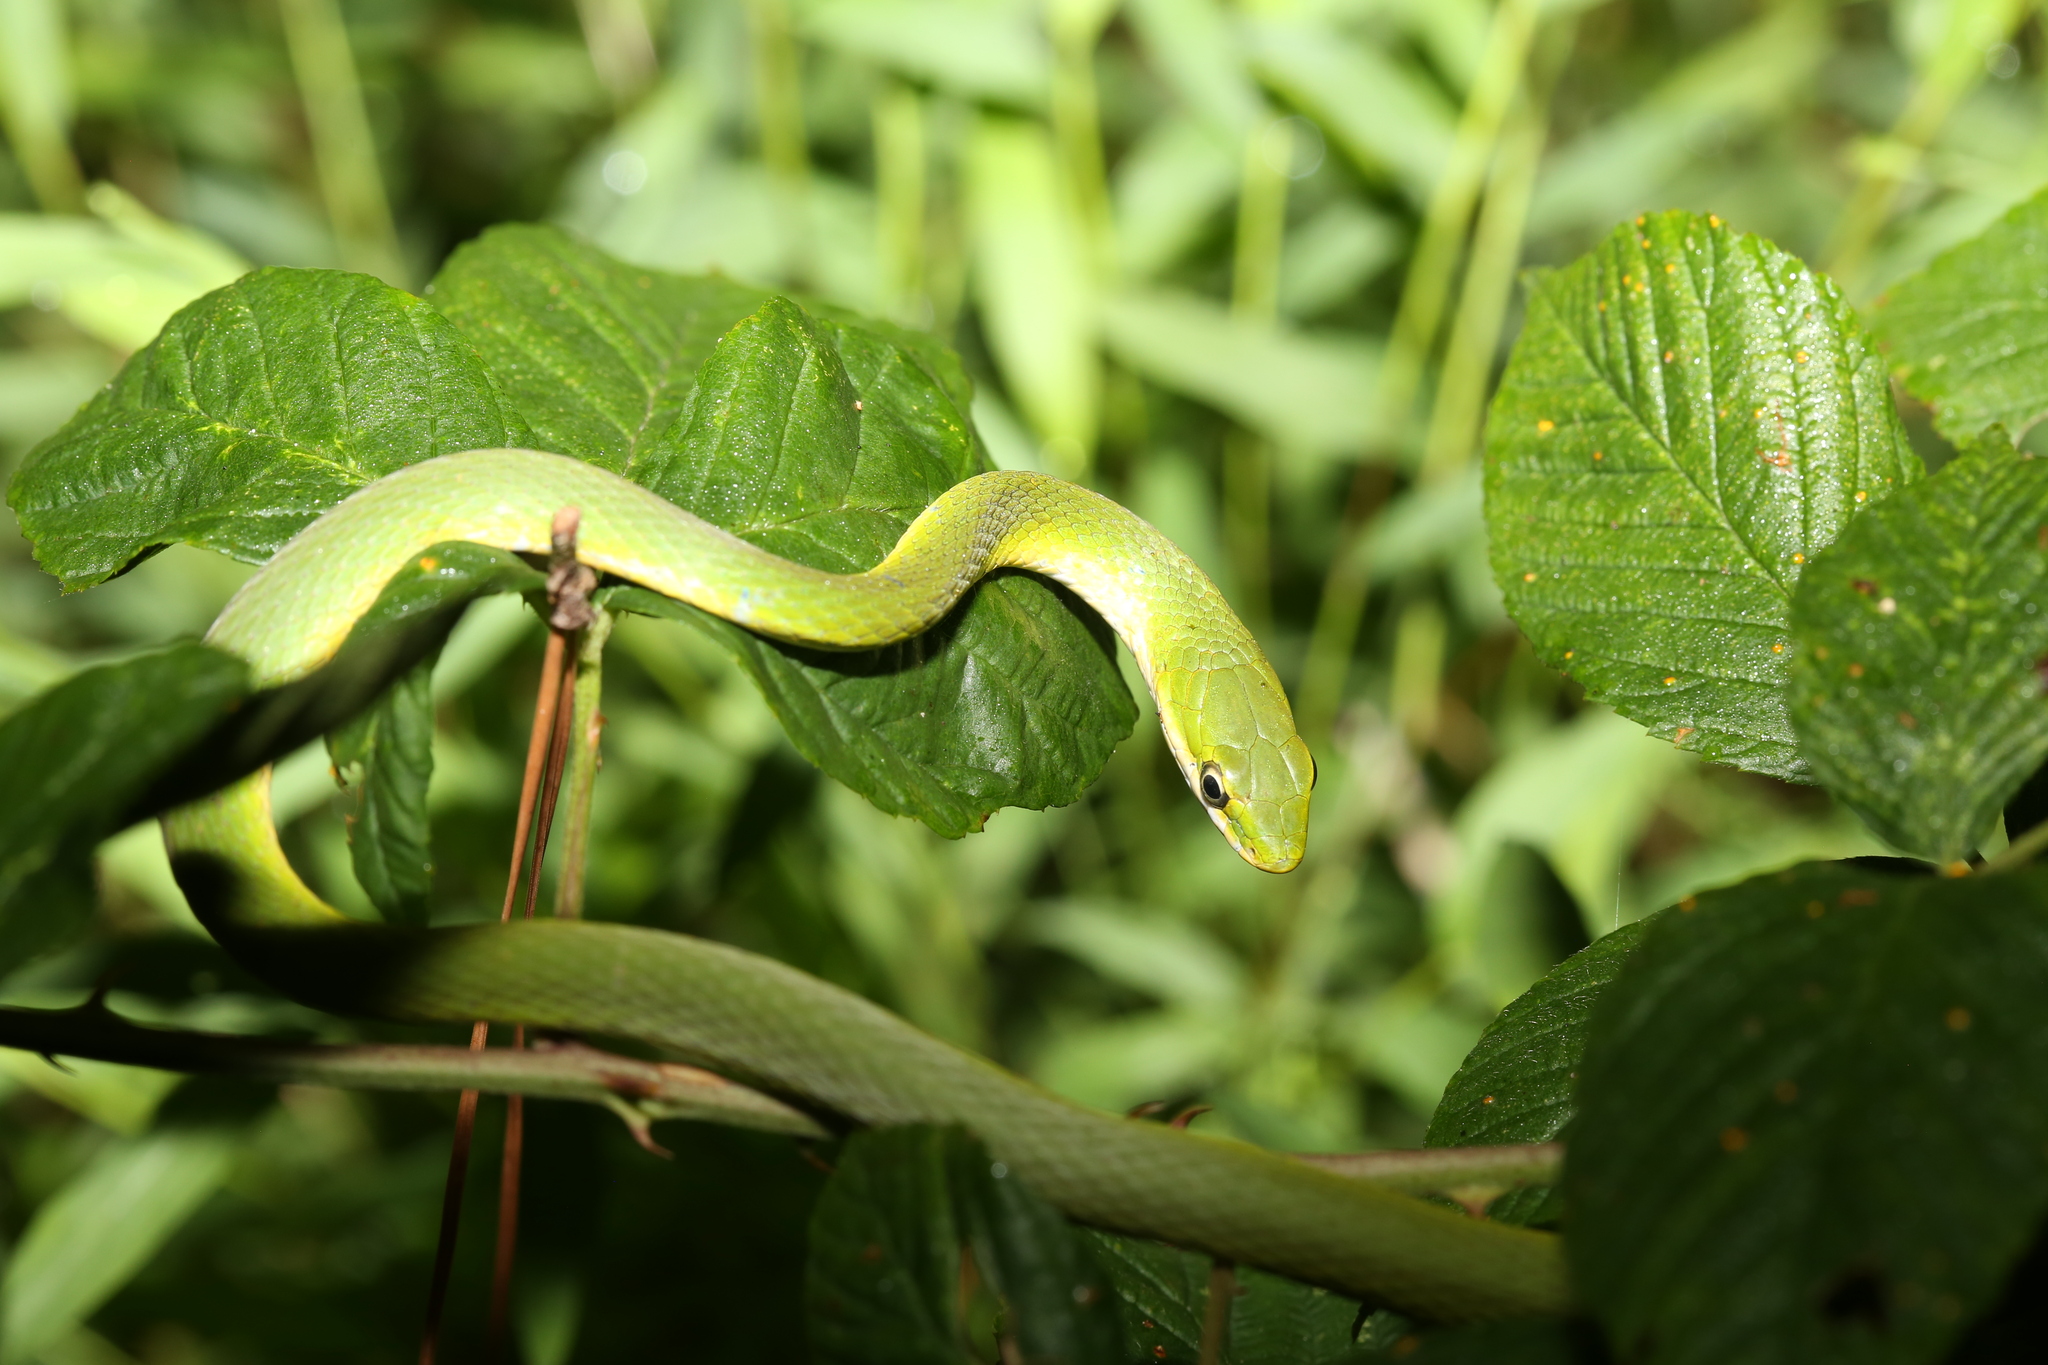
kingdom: Animalia
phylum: Chordata
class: Squamata
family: Colubridae
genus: Opheodrys
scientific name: Opheodrys aestivus
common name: Rough greensnake
